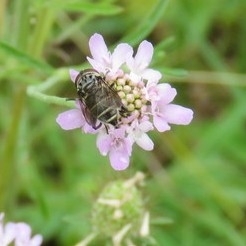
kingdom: Animalia
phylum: Arthropoda
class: Insecta
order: Diptera
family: Syrphidae
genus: Palpada
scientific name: Palpada furcata
